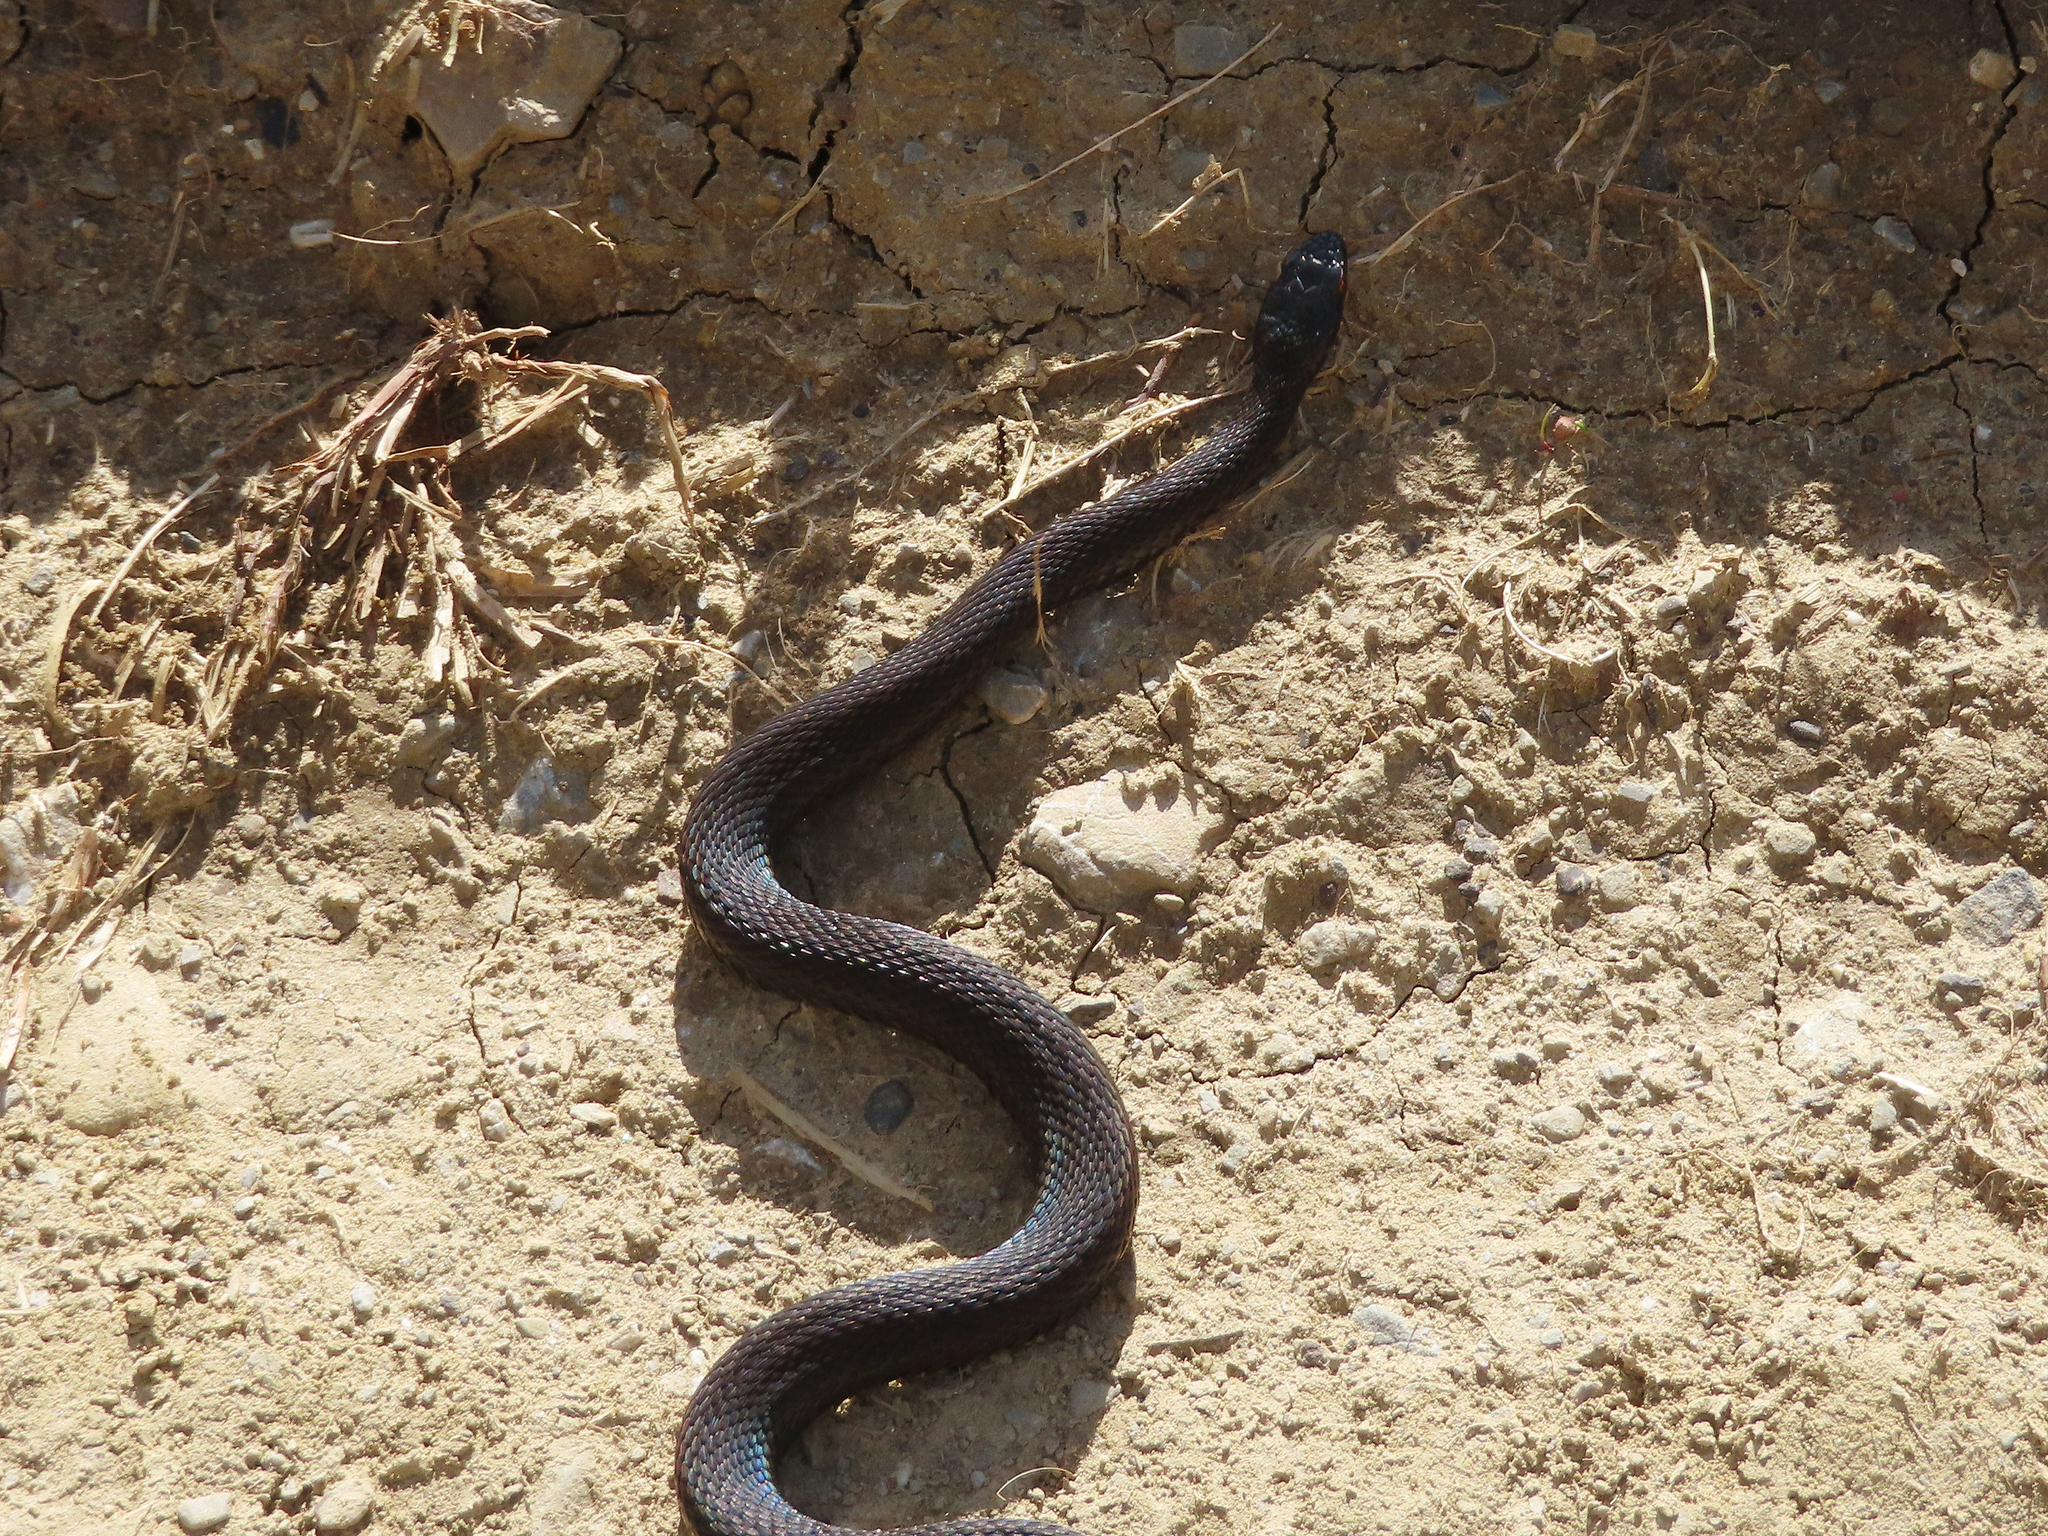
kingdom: Animalia
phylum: Chordata
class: Squamata
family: Viperidae
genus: Vipera
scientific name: Vipera berus
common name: Adder
